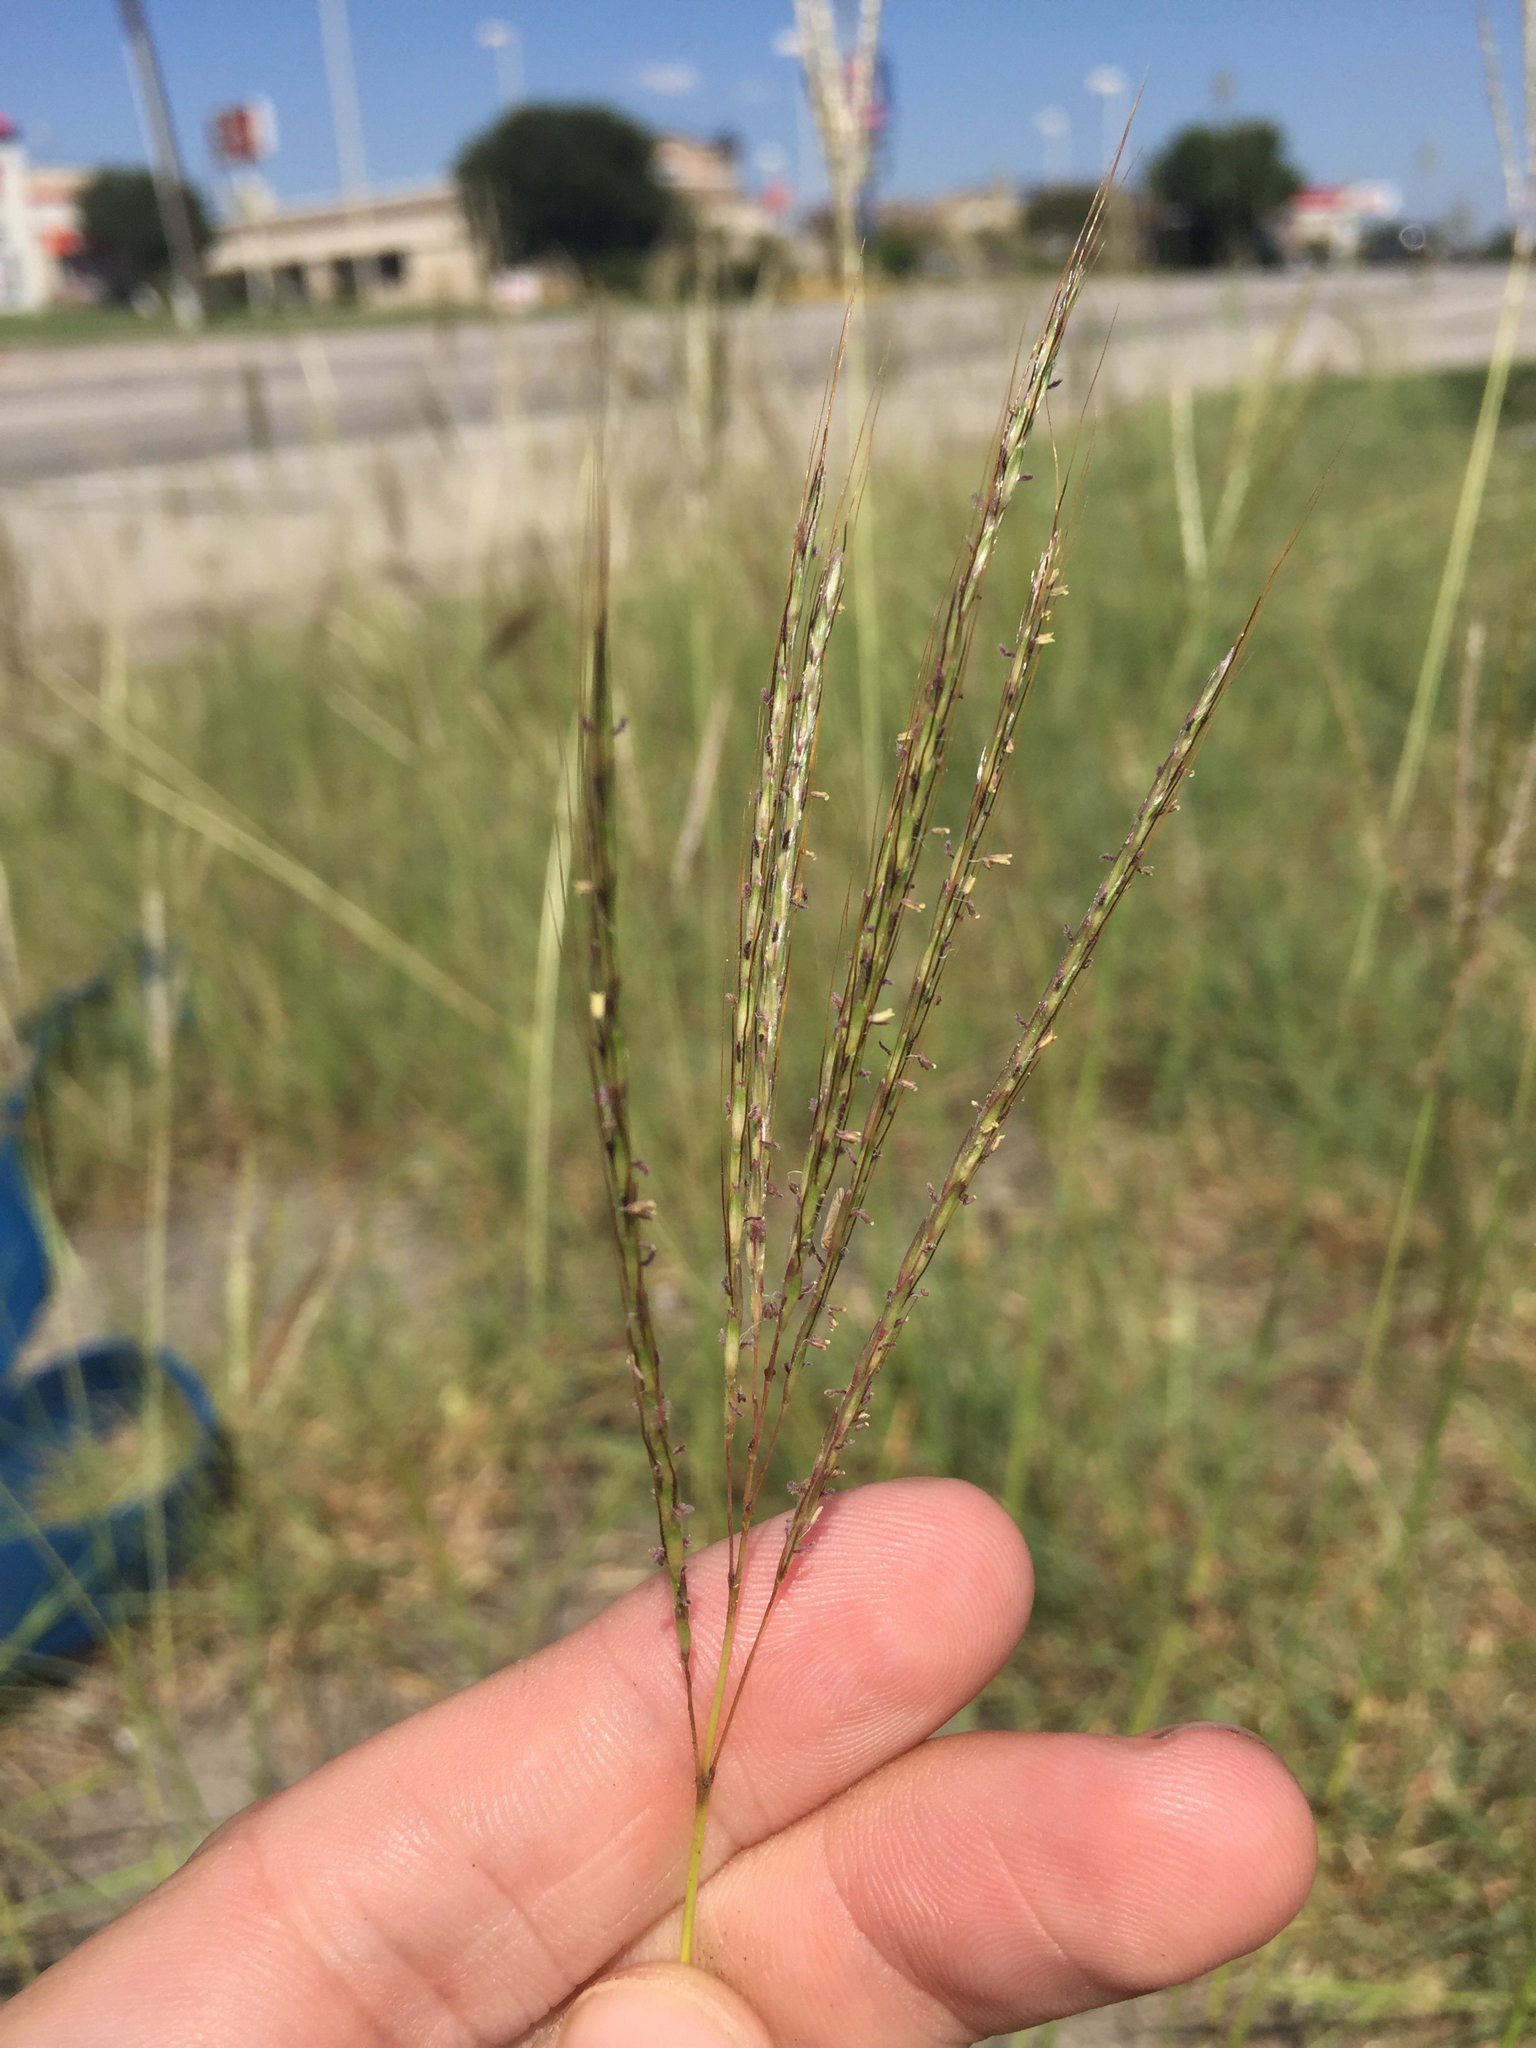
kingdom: Plantae
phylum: Tracheophyta
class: Liliopsida
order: Poales
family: Poaceae
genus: Bothriochloa
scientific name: Bothriochloa ischaemum
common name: Yellow bluestem
